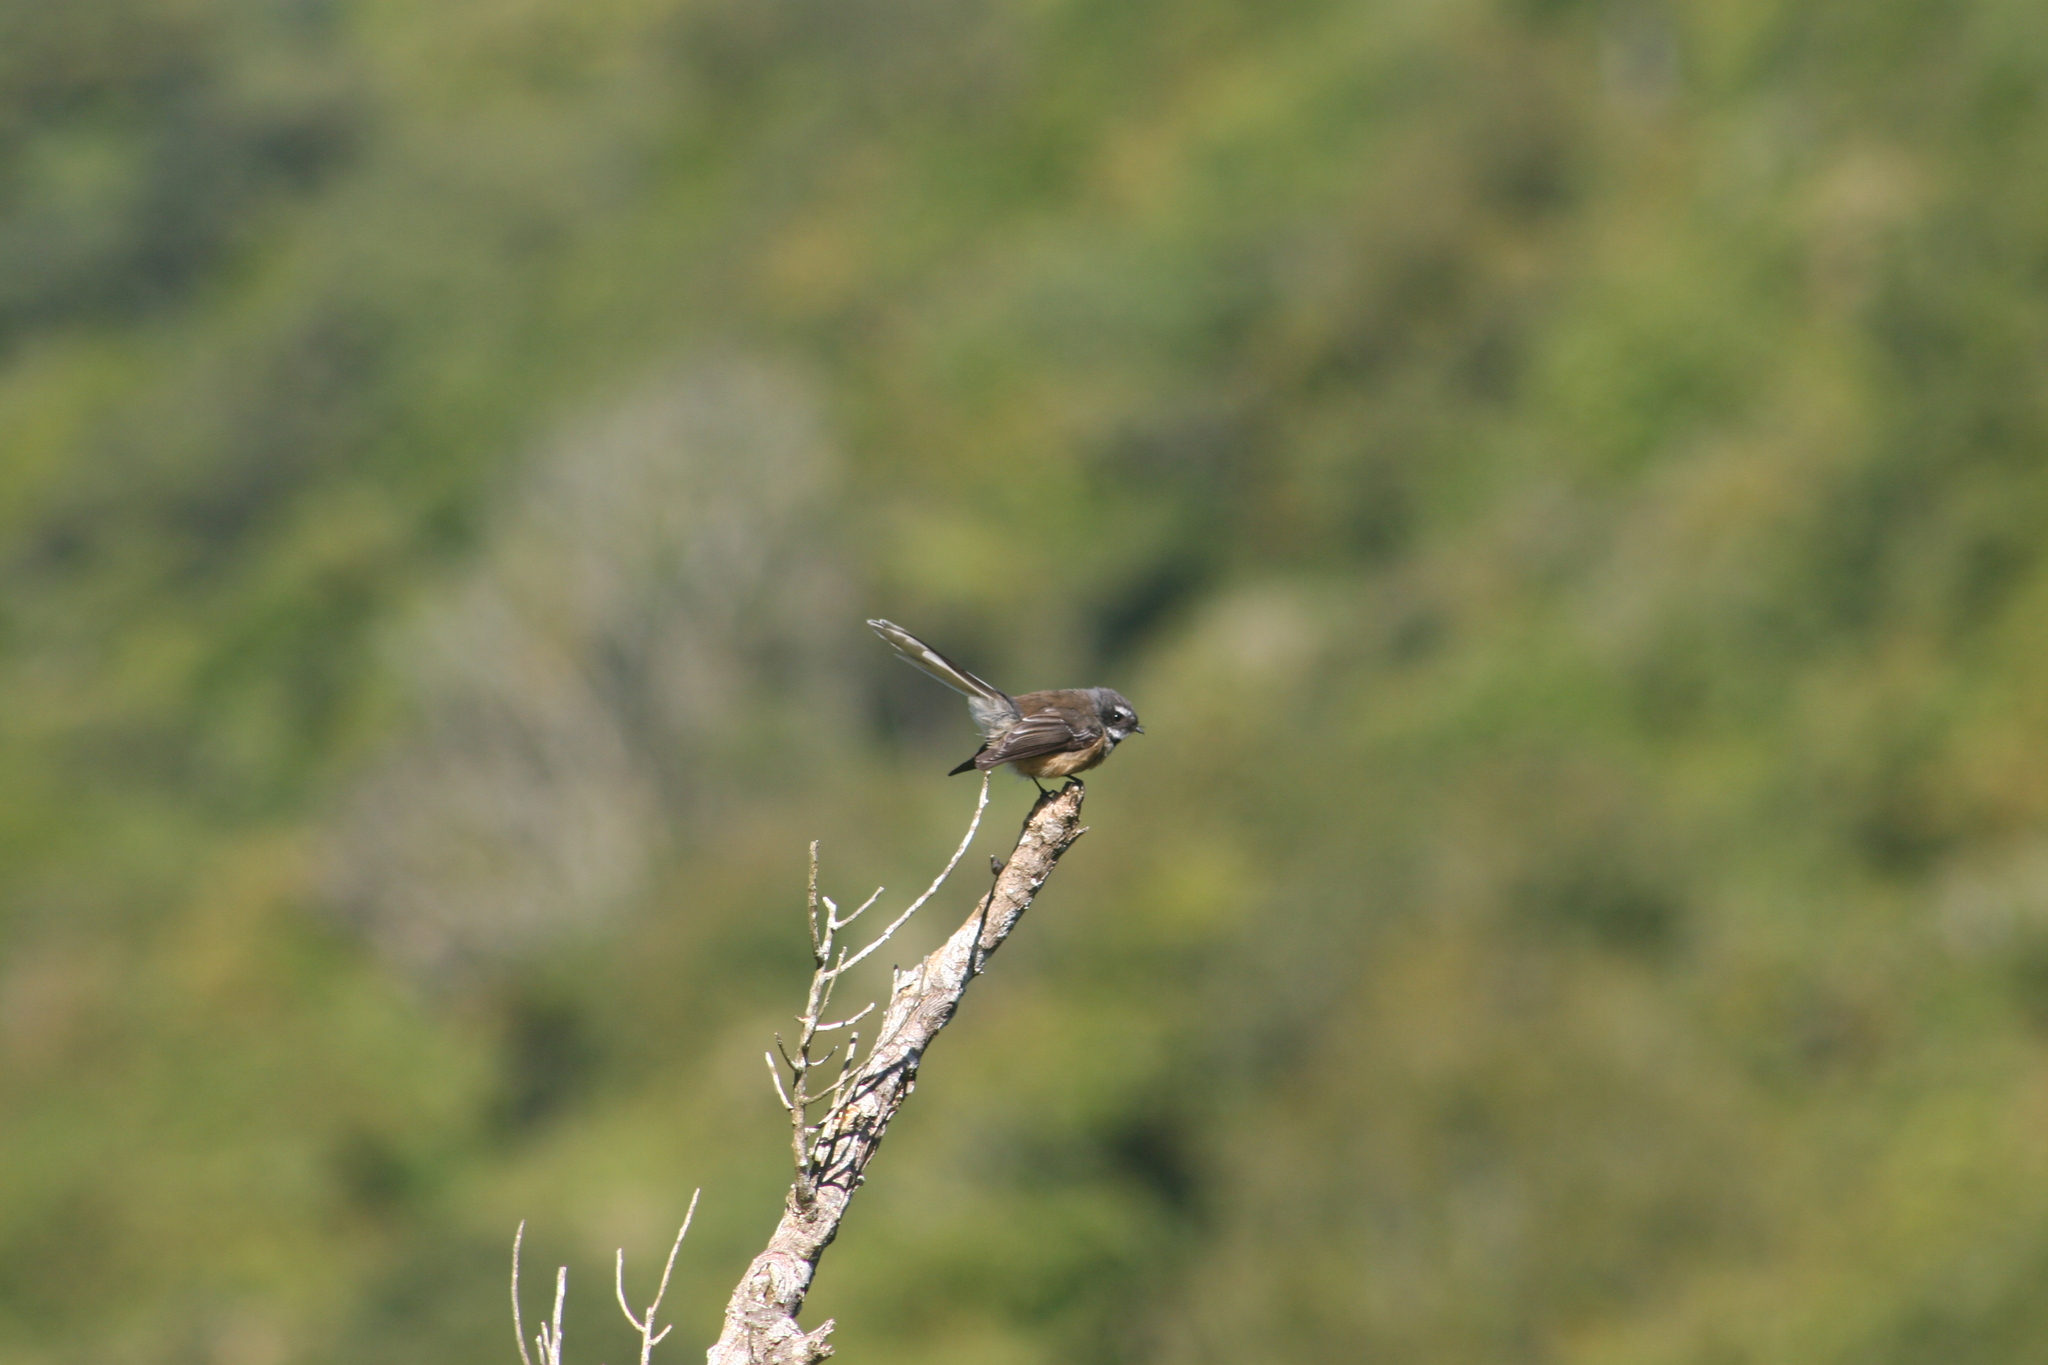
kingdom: Animalia
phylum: Chordata
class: Aves
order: Passeriformes
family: Rhipiduridae
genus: Rhipidura
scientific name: Rhipidura fuliginosa
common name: New zealand fantail
